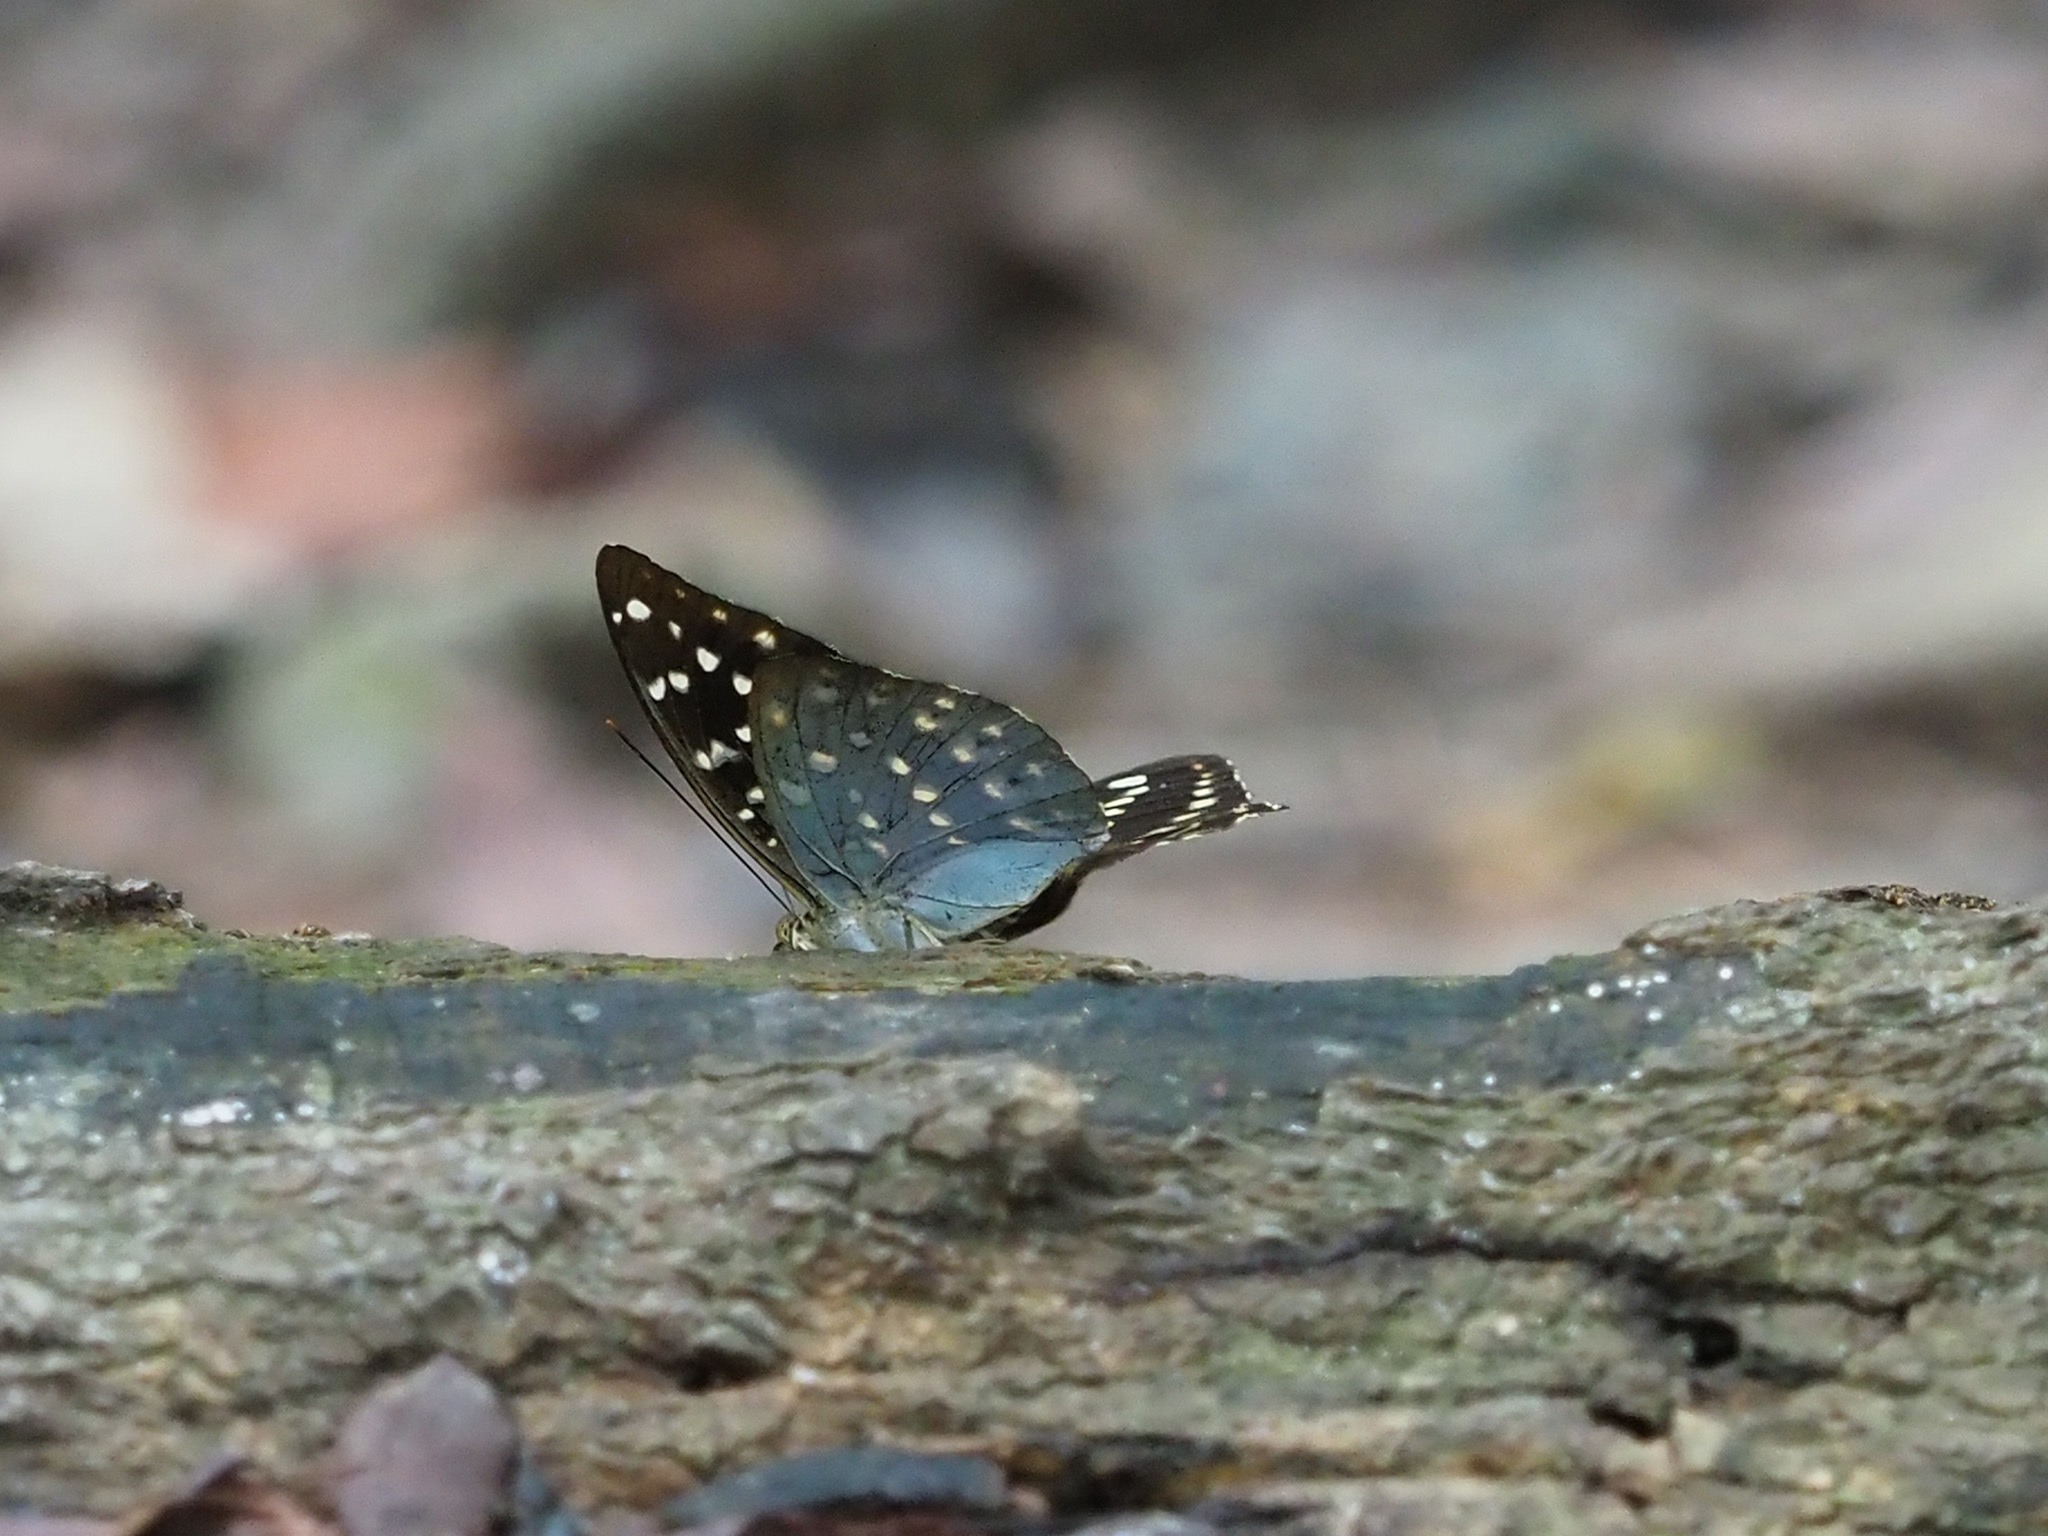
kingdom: Animalia
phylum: Arthropoda
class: Insecta
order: Lepidoptera
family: Nymphalidae
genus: Lexias
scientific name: Lexias pardalis
